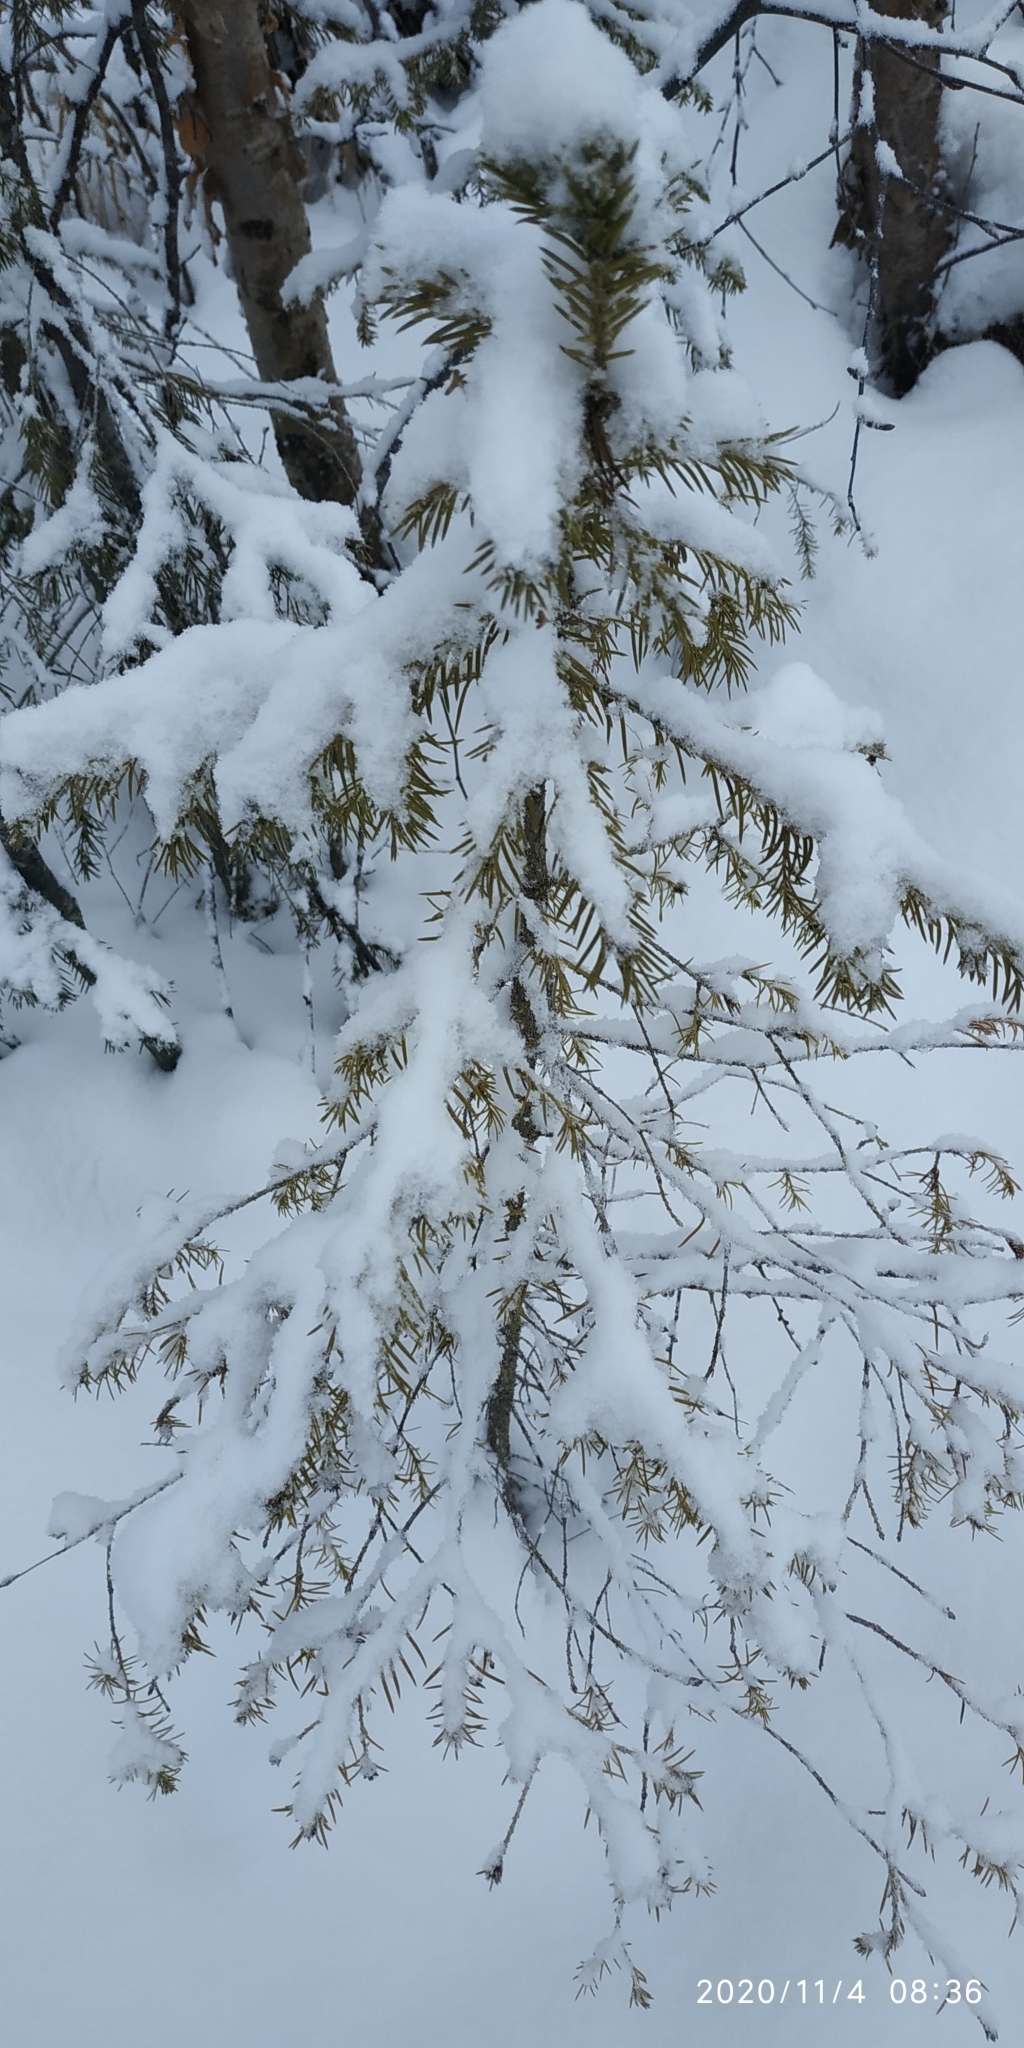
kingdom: Plantae
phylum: Tracheophyta
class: Pinopsida
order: Pinales
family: Pinaceae
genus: Picea
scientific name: Picea obovata
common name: Siberian spruce
